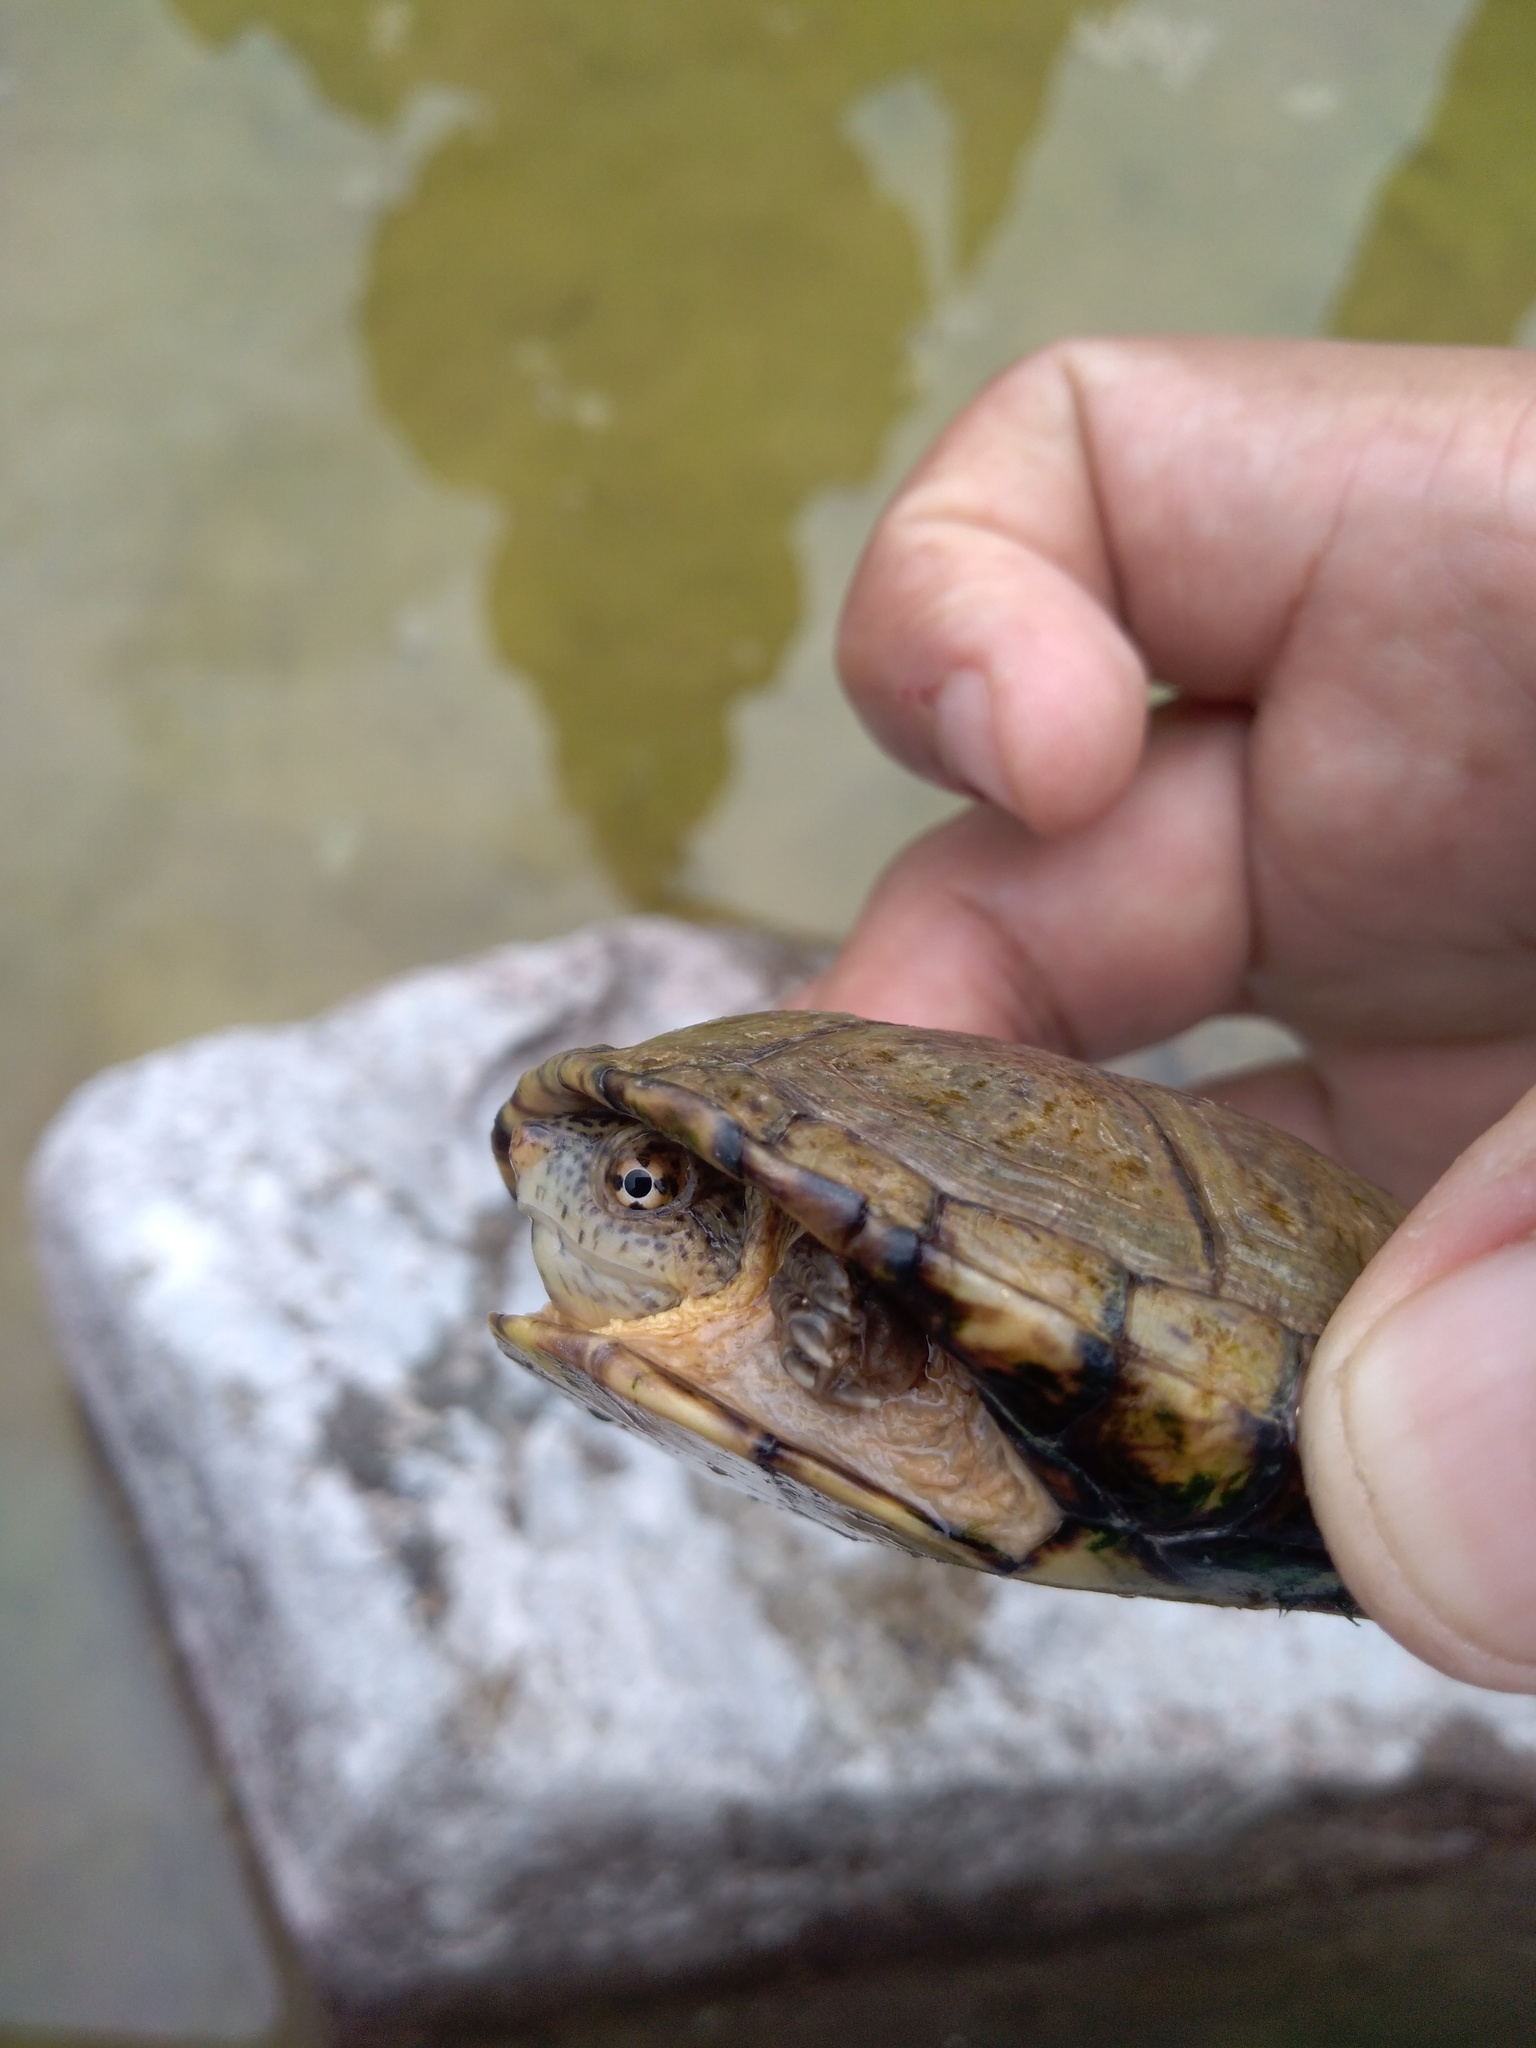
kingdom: Animalia
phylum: Chordata
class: Testudines
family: Kinosternidae
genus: Kinosternon
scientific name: Kinosternon integrum
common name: Mexican mud turtle
